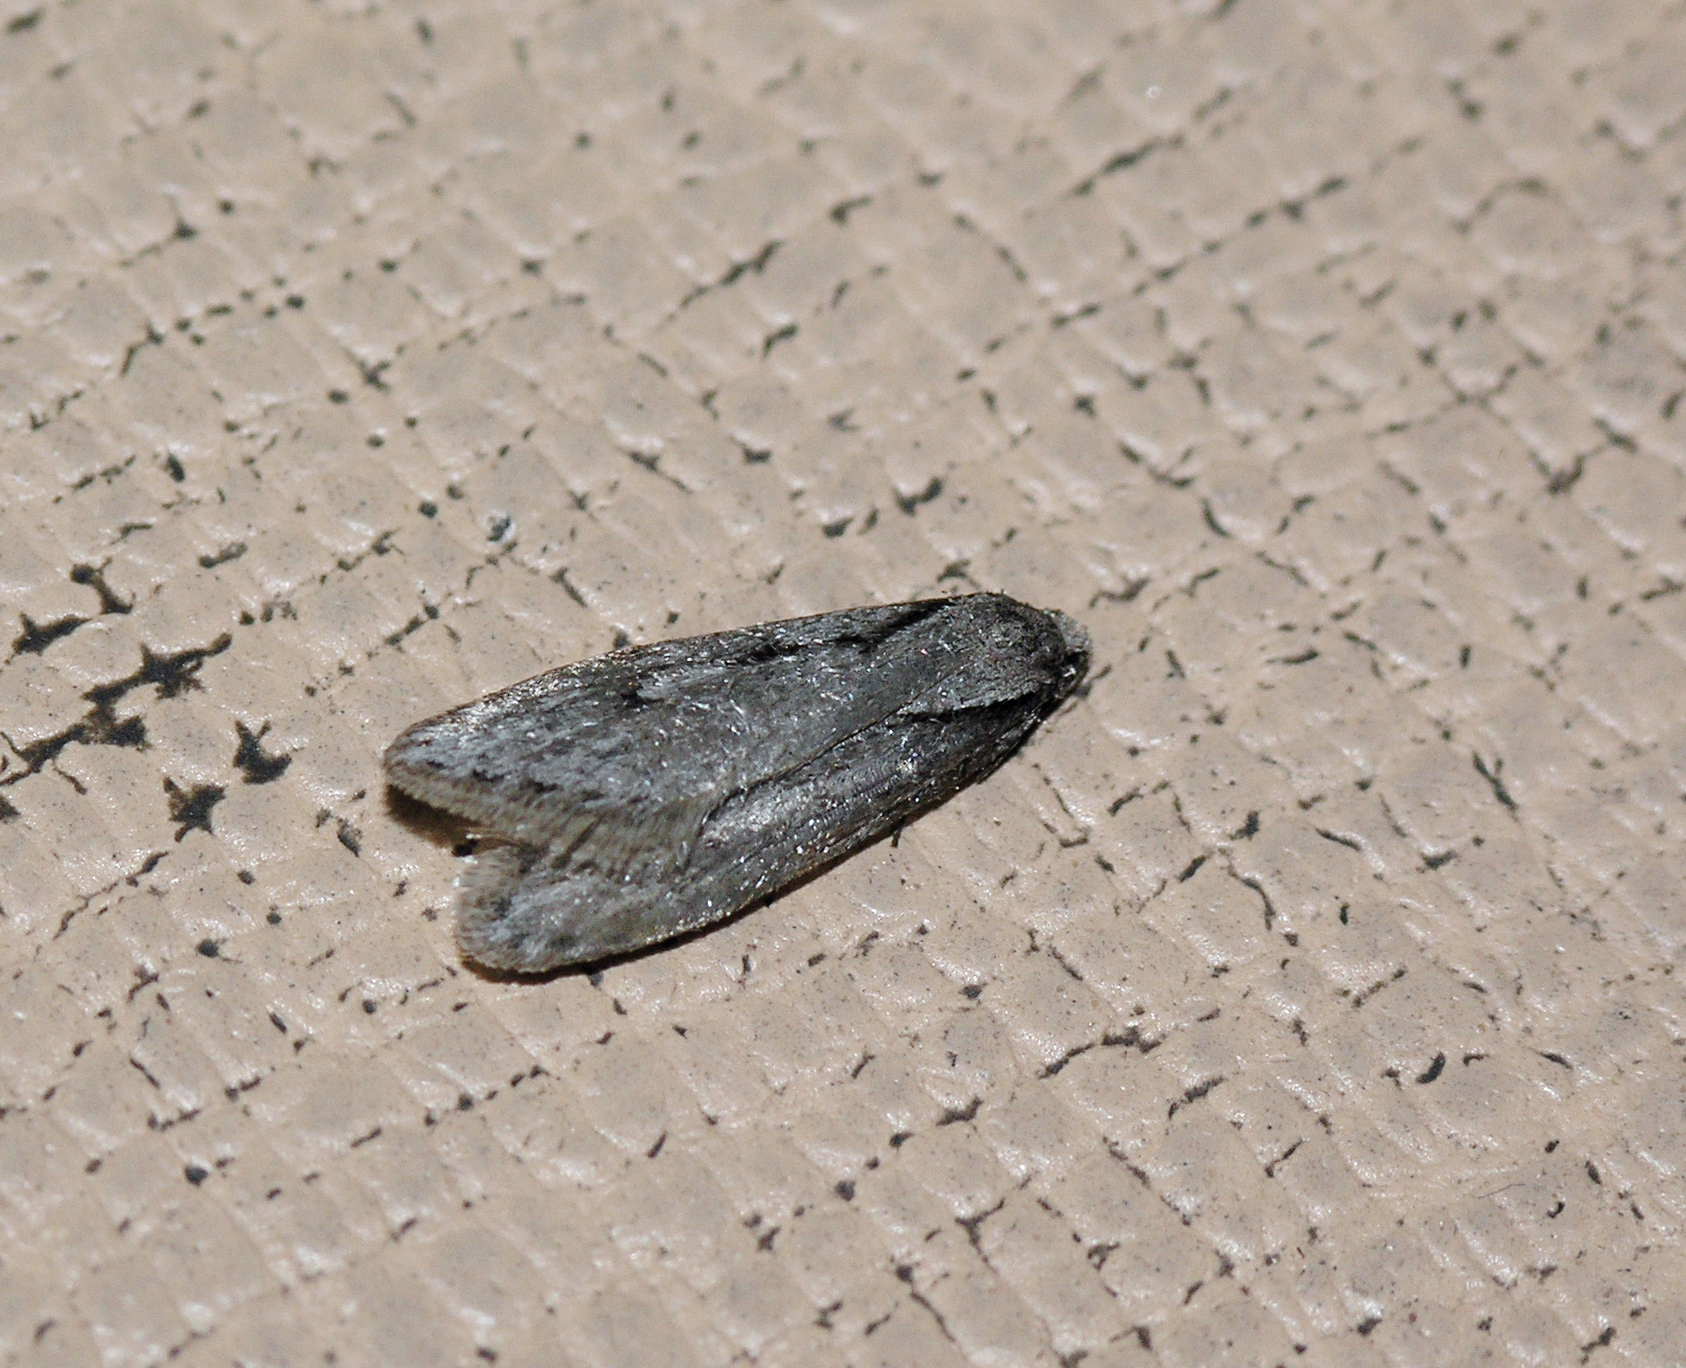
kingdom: Animalia
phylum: Arthropoda
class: Insecta
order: Lepidoptera
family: Depressariidae
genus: Semioscopis
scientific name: Semioscopis avellanella
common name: Early flat-body
